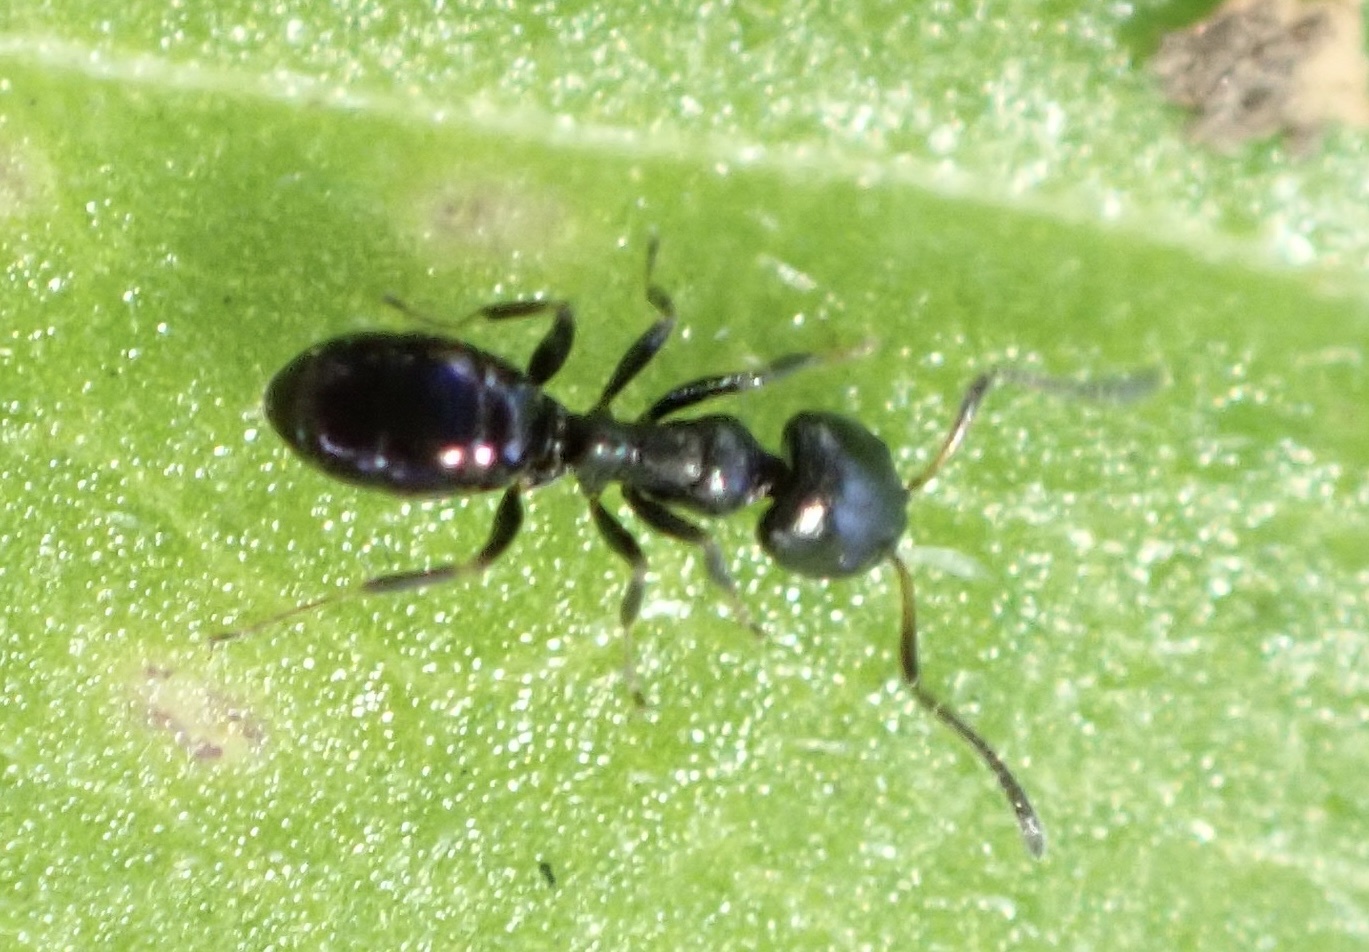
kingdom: Animalia
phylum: Arthropoda
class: Insecta
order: Hymenoptera
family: Formicidae
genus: Ochetellus
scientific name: Ochetellus glaber
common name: Ant
